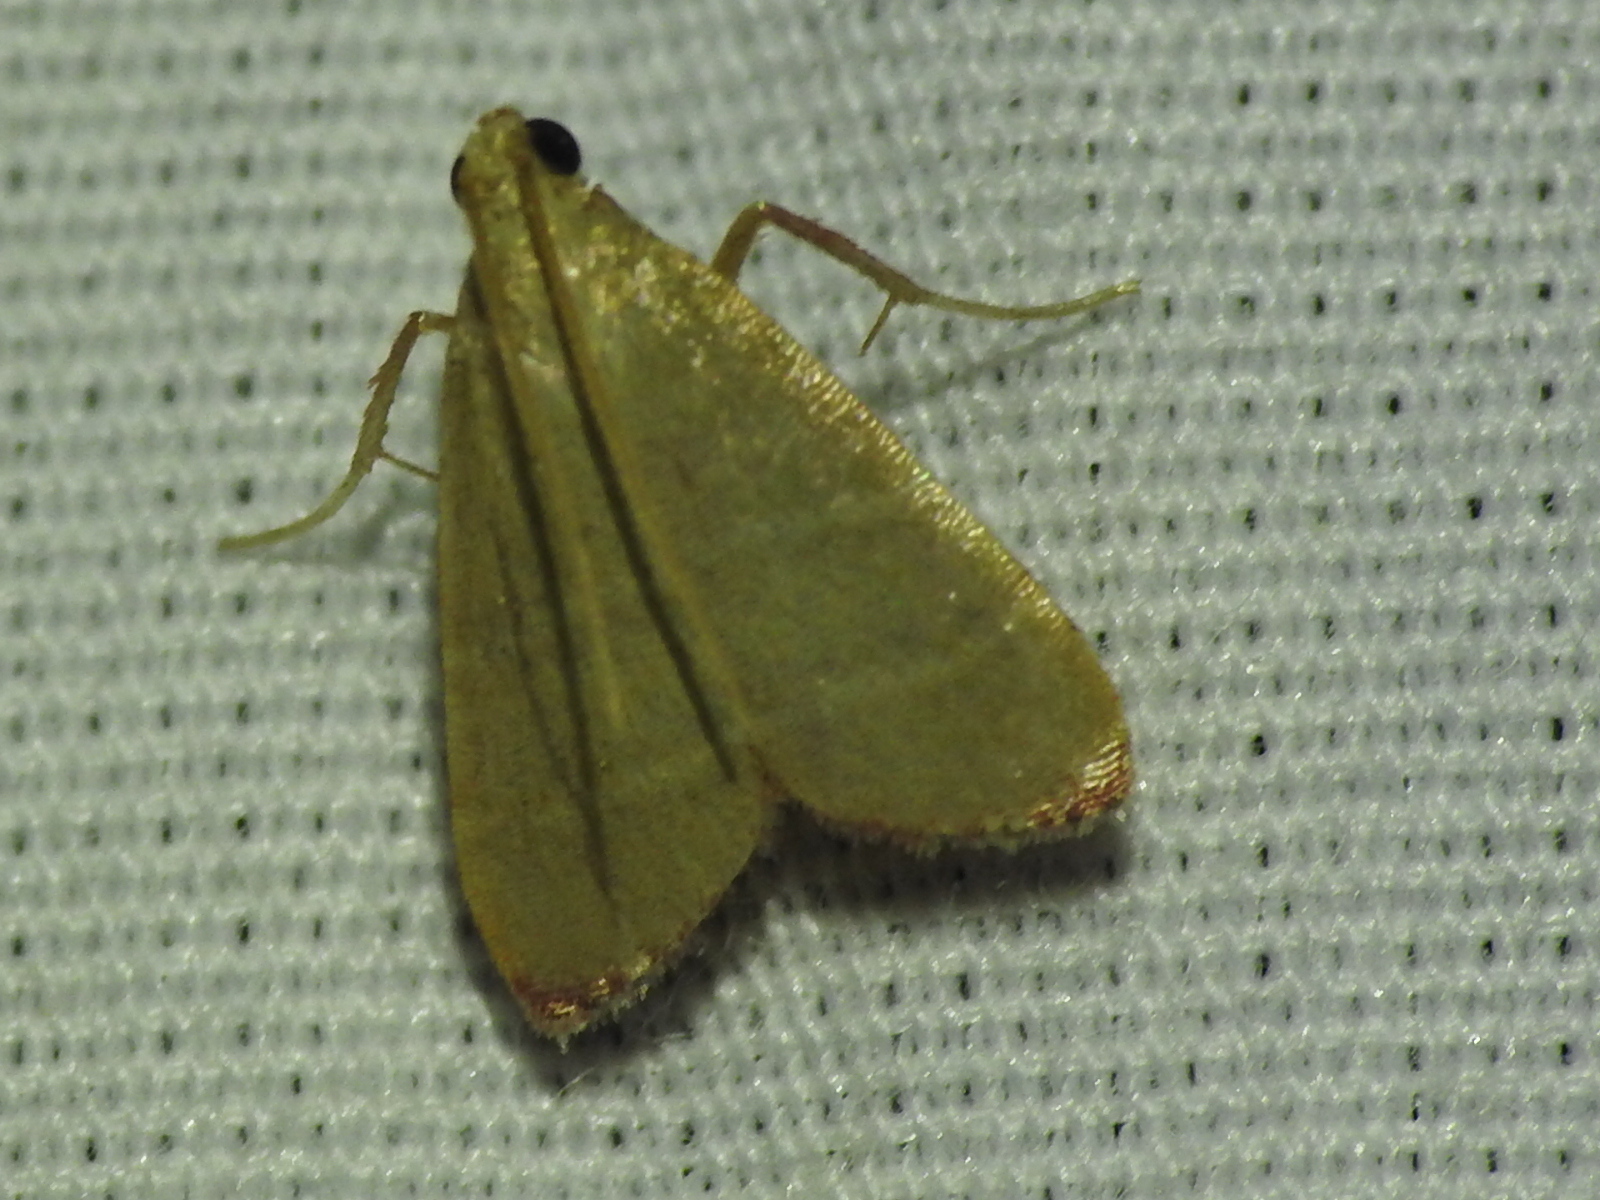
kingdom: Animalia
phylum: Arthropoda
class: Insecta
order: Lepidoptera
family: Pyralidae
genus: Arta
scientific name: Arta olivalis
